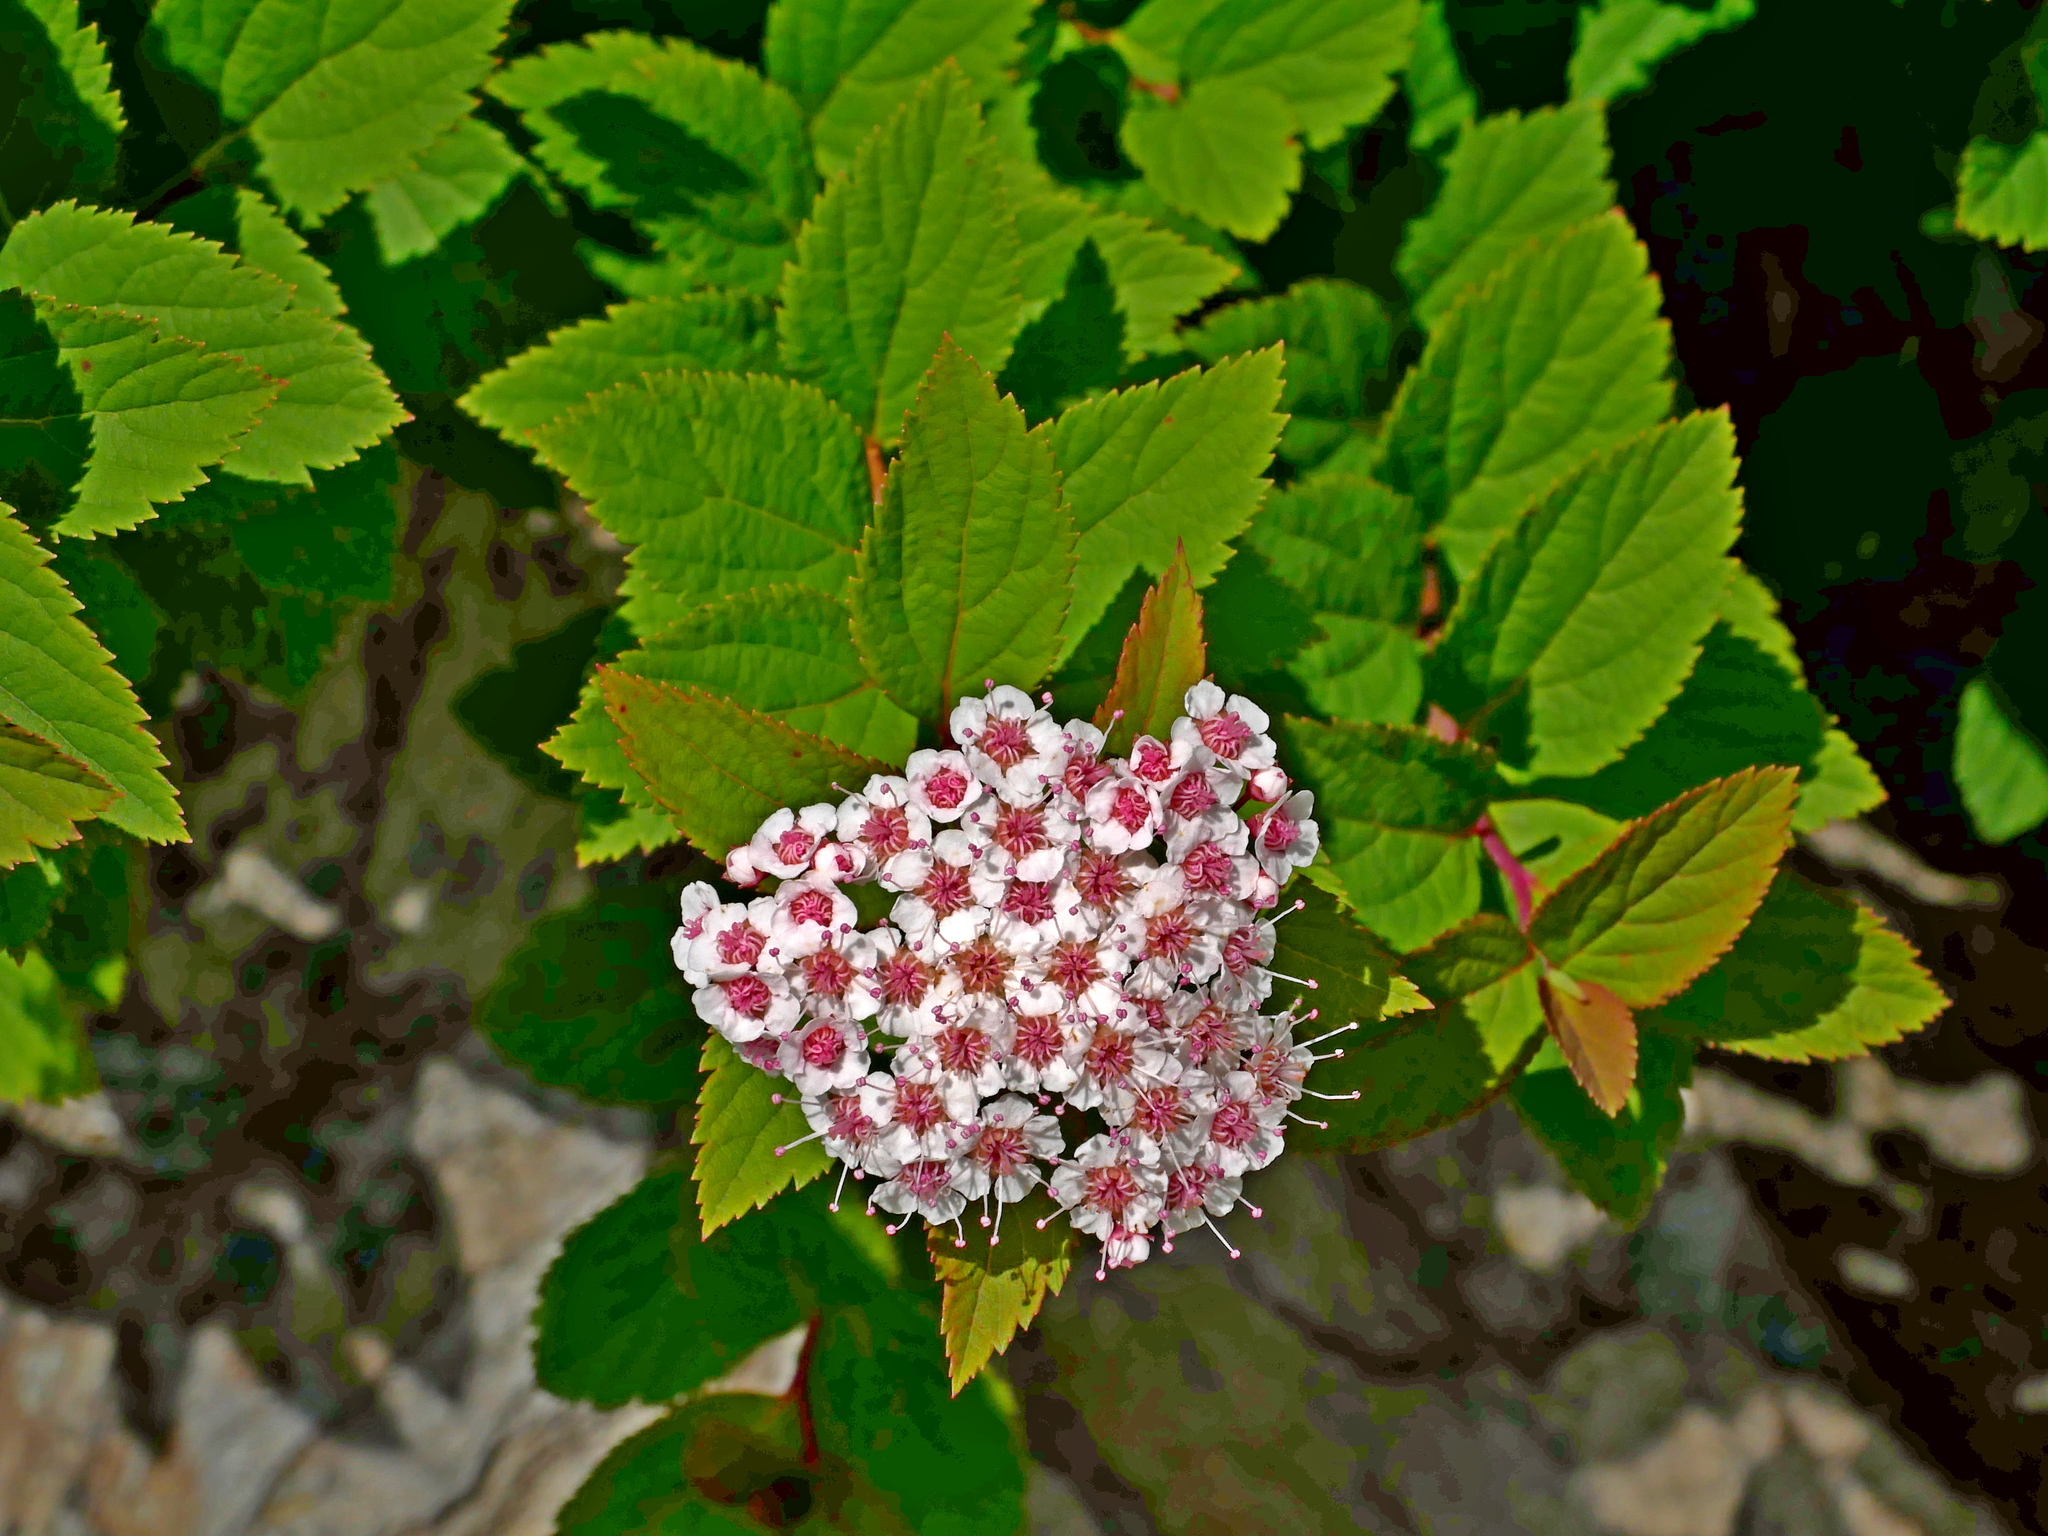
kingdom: Plantae
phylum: Tracheophyta
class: Magnoliopsida
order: Rosales
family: Rosaceae
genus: Spiraea
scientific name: Spiraea morrisonicola
